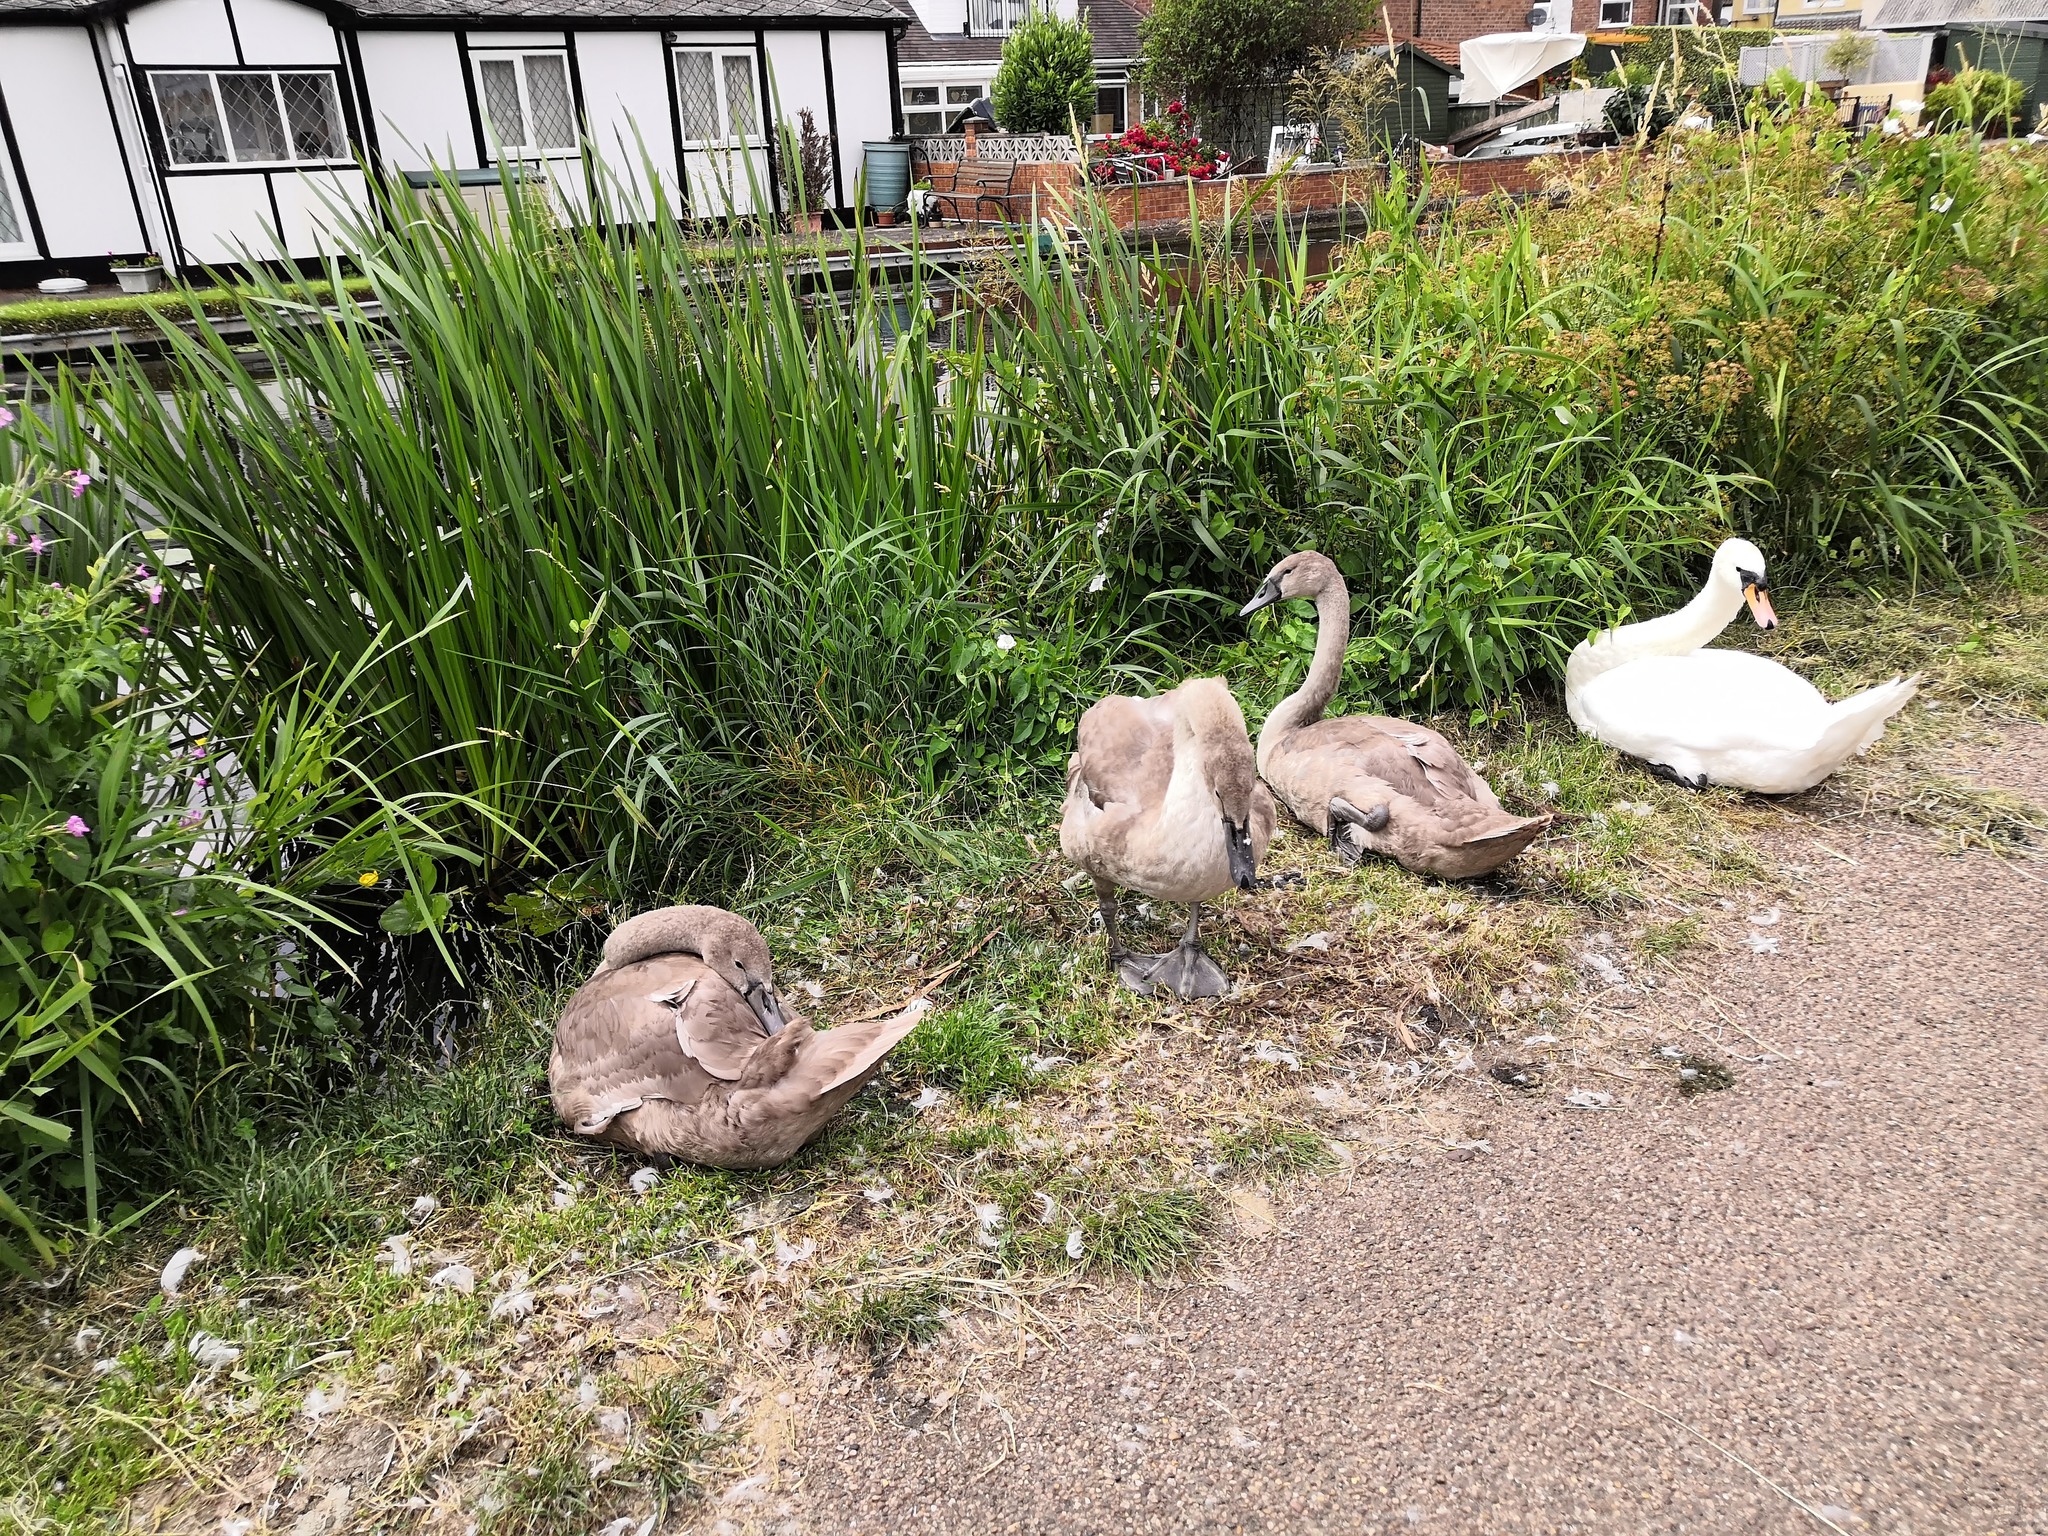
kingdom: Animalia
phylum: Chordata
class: Aves
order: Anseriformes
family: Anatidae
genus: Cygnus
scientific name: Cygnus olor
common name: Mute swan
